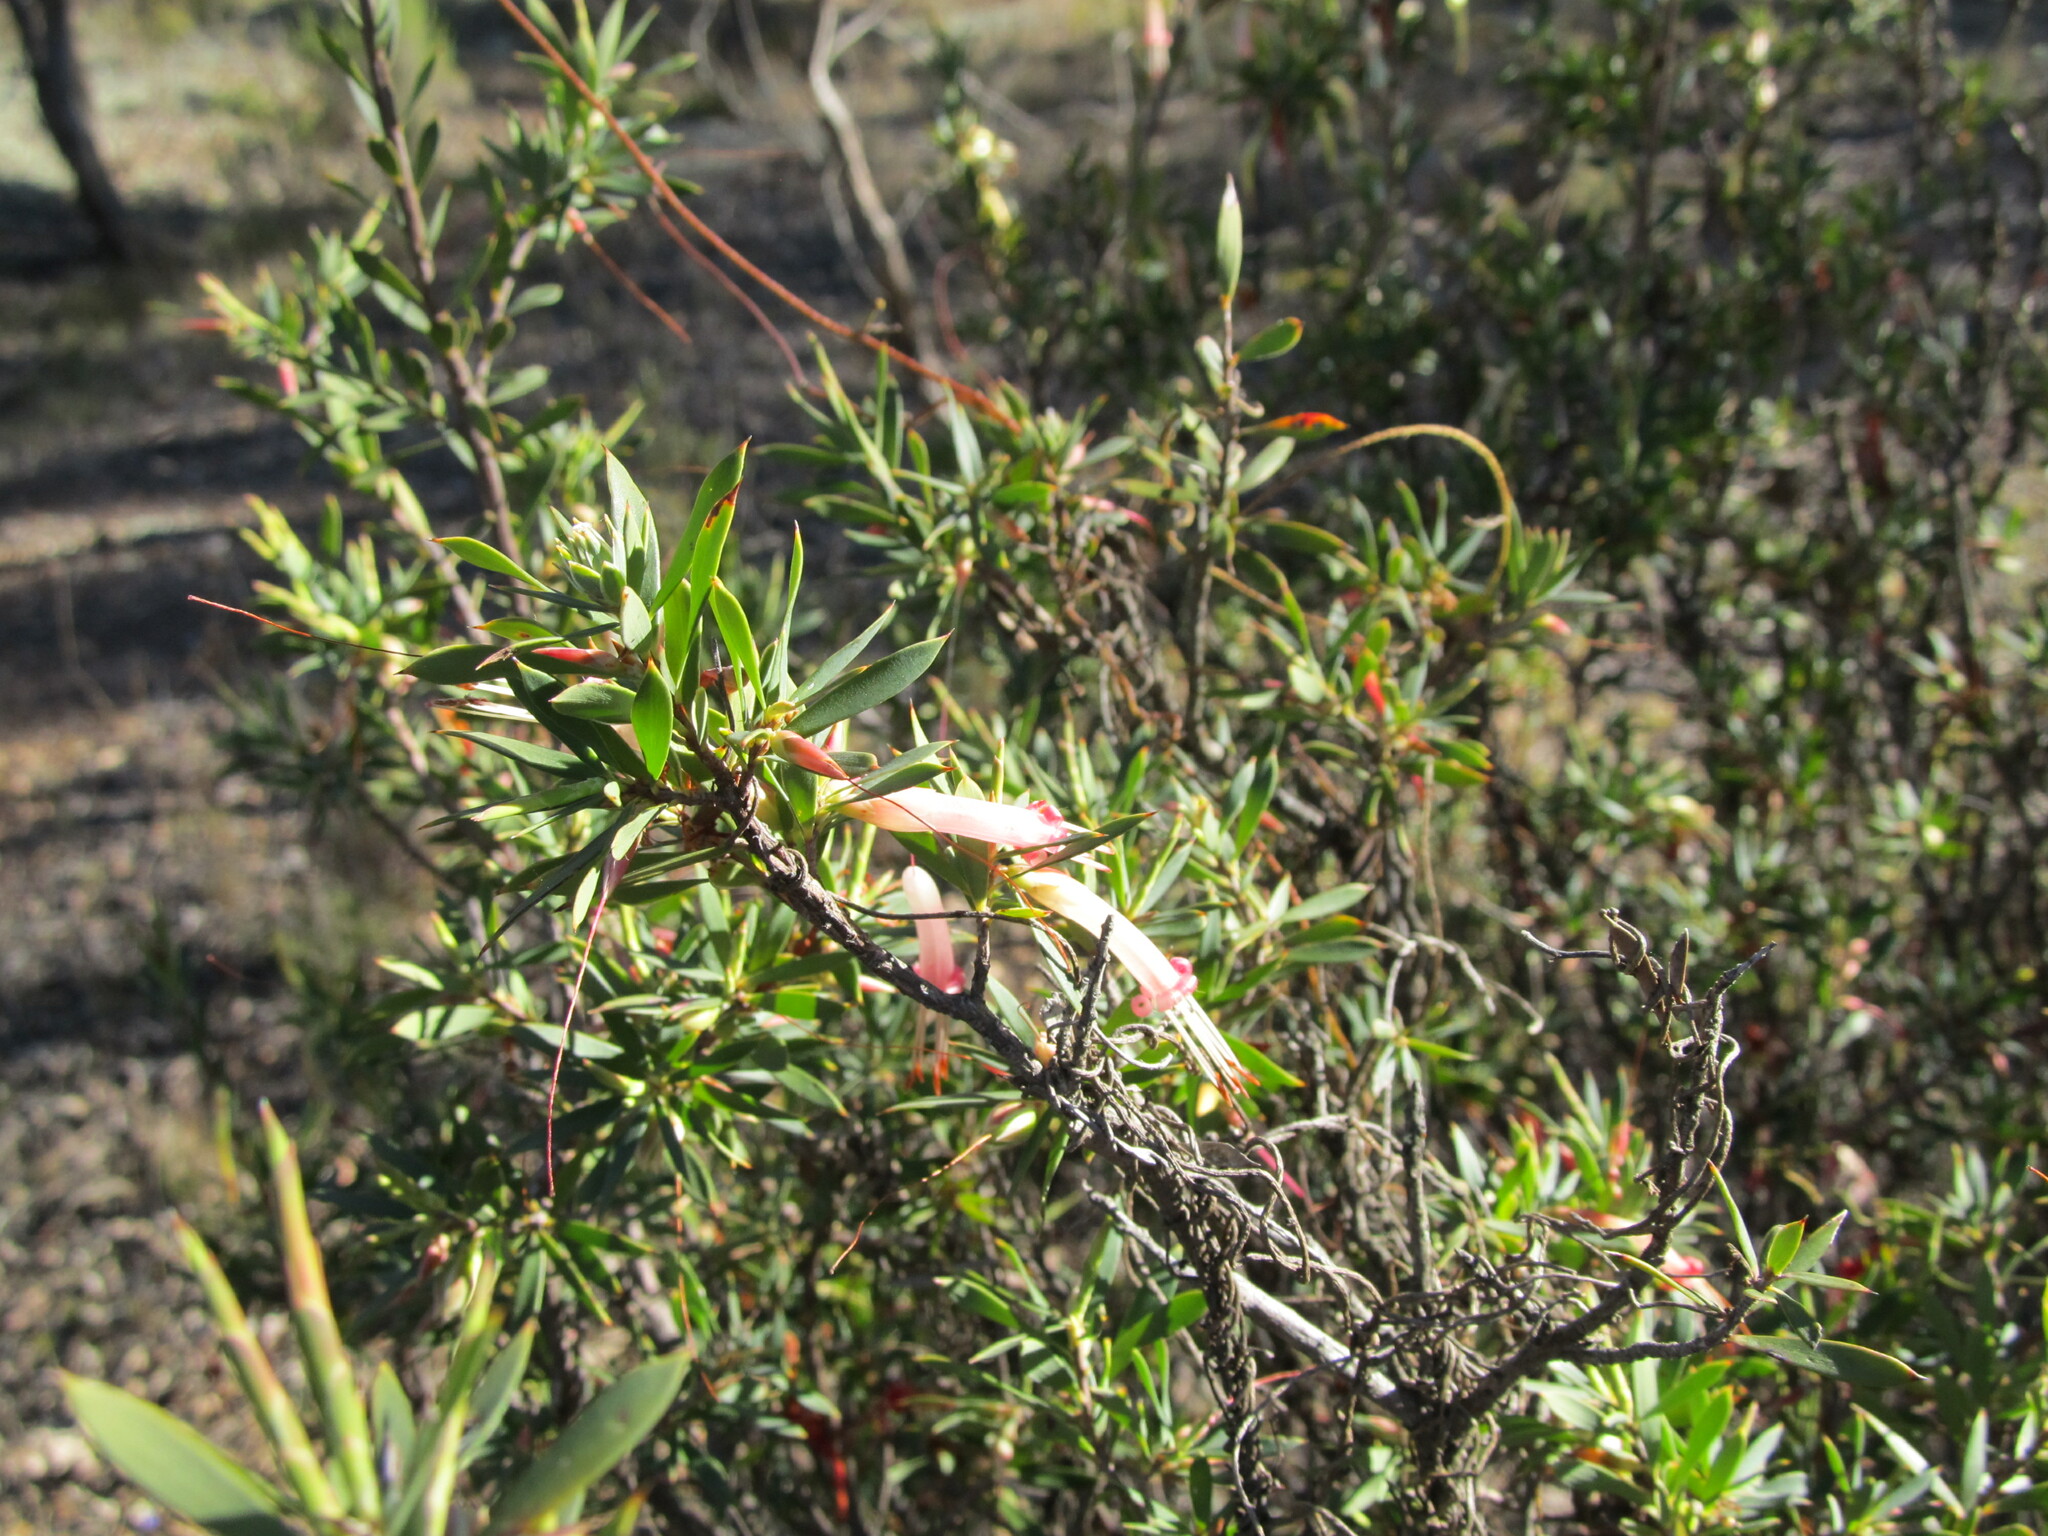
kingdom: Plantae
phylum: Tracheophyta
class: Magnoliopsida
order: Ericales
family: Ericaceae
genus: Styphelia
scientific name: Styphelia triflora
